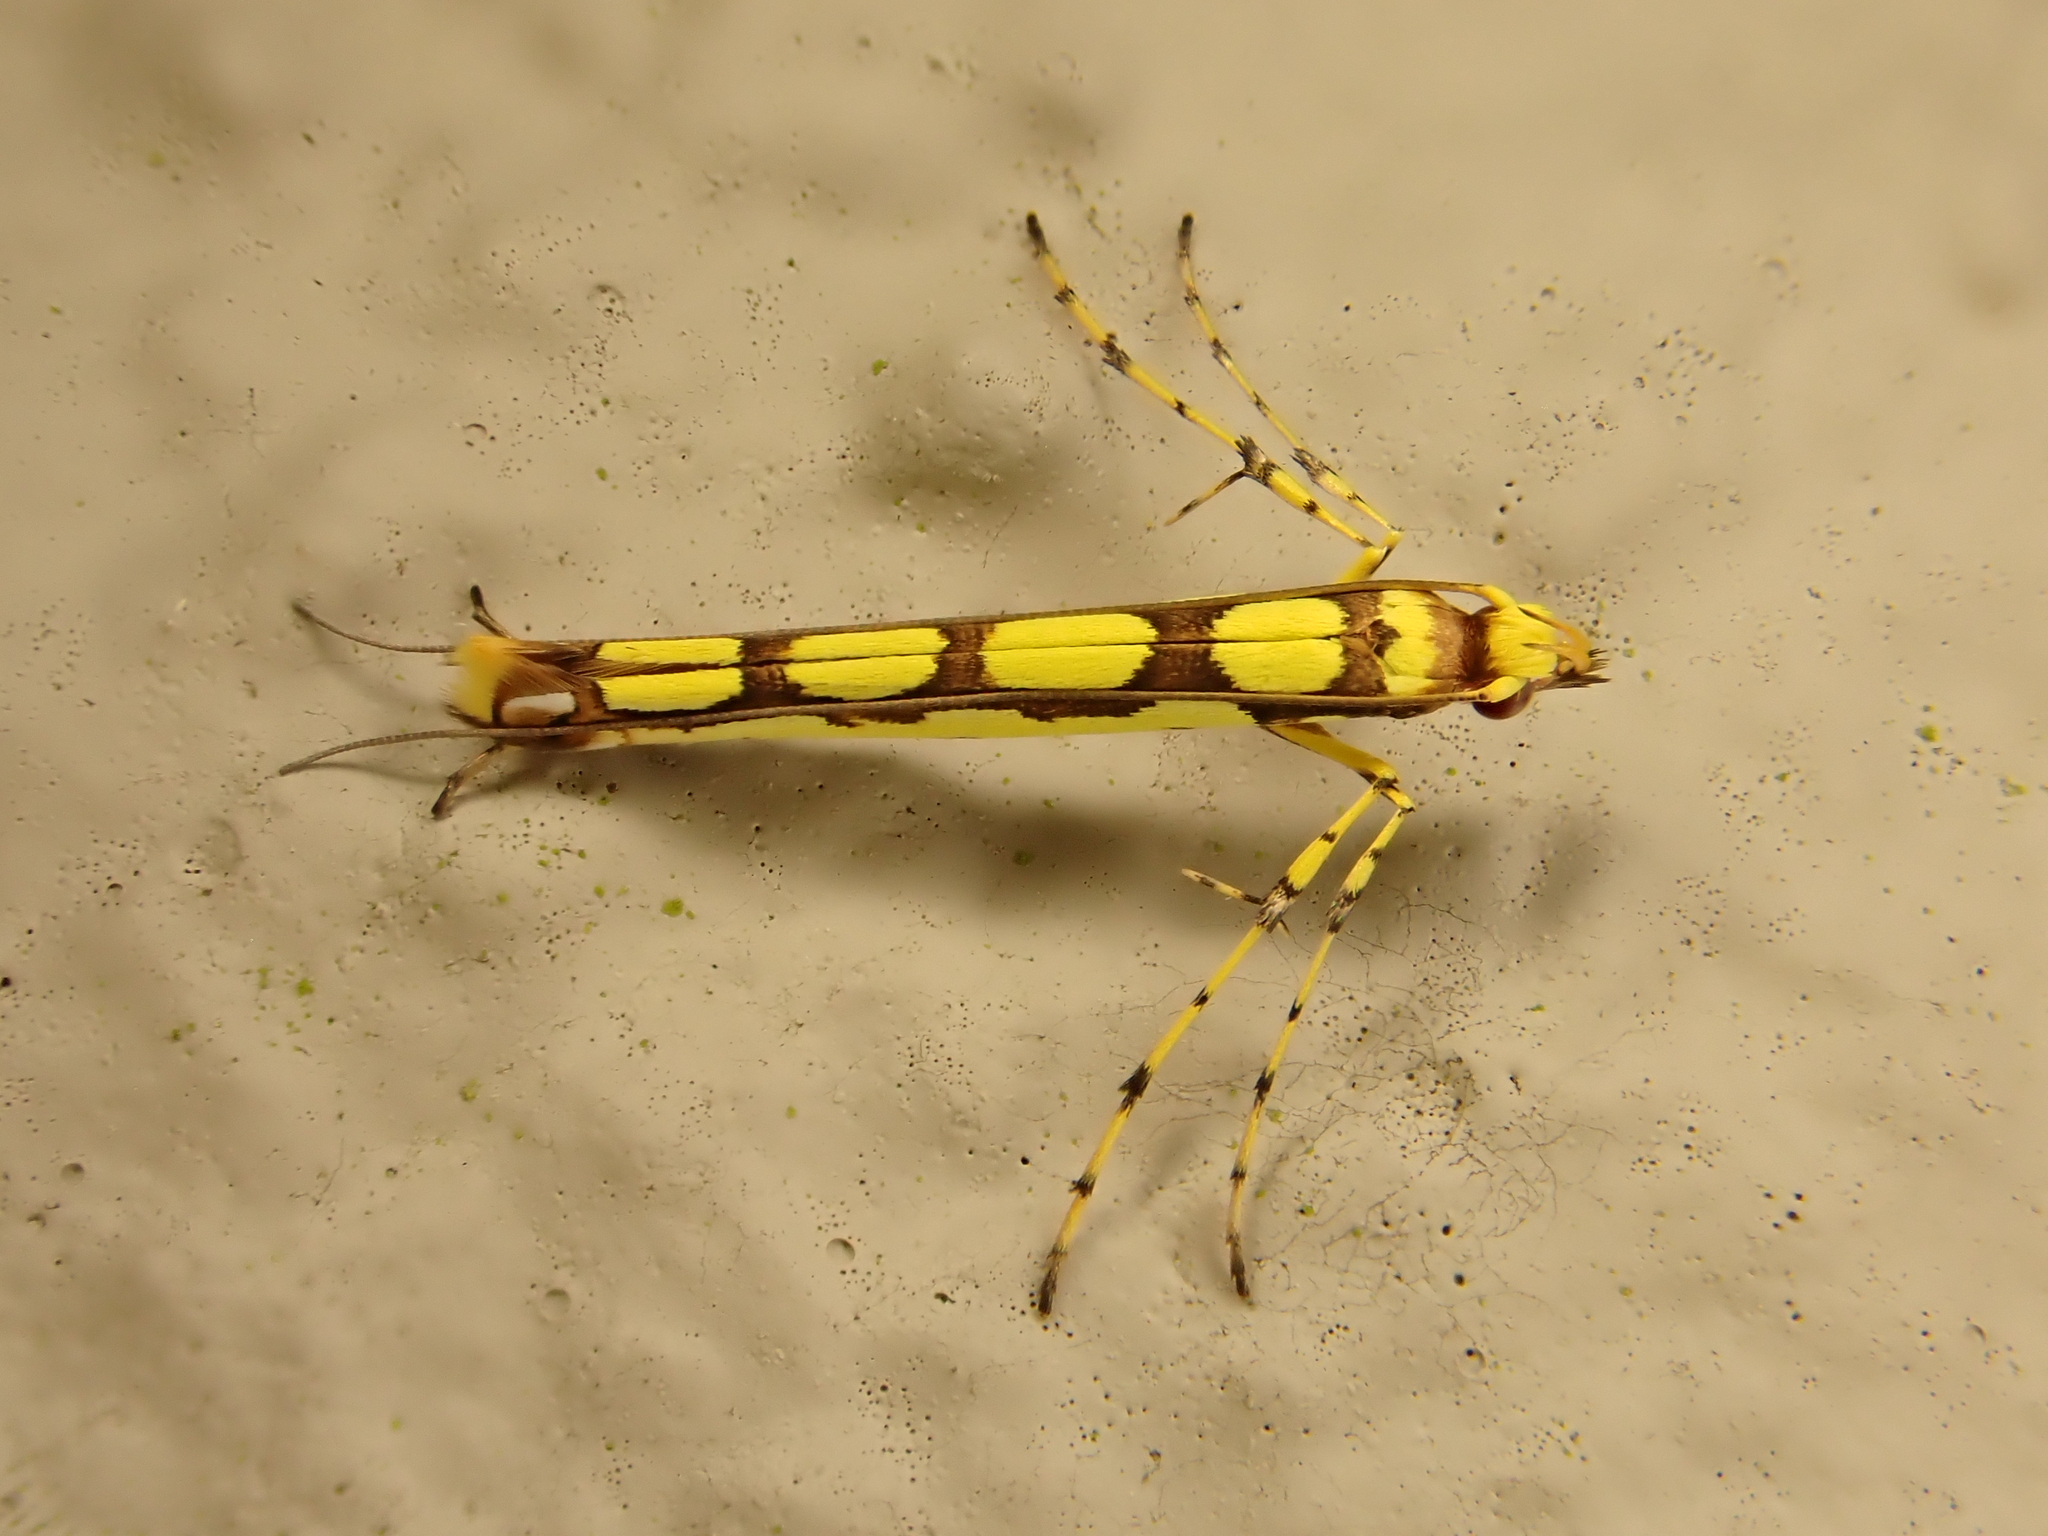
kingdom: Animalia
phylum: Arthropoda
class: Insecta
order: Lepidoptera
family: Gracillariidae
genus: Macarostola
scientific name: Macarostola miniella
